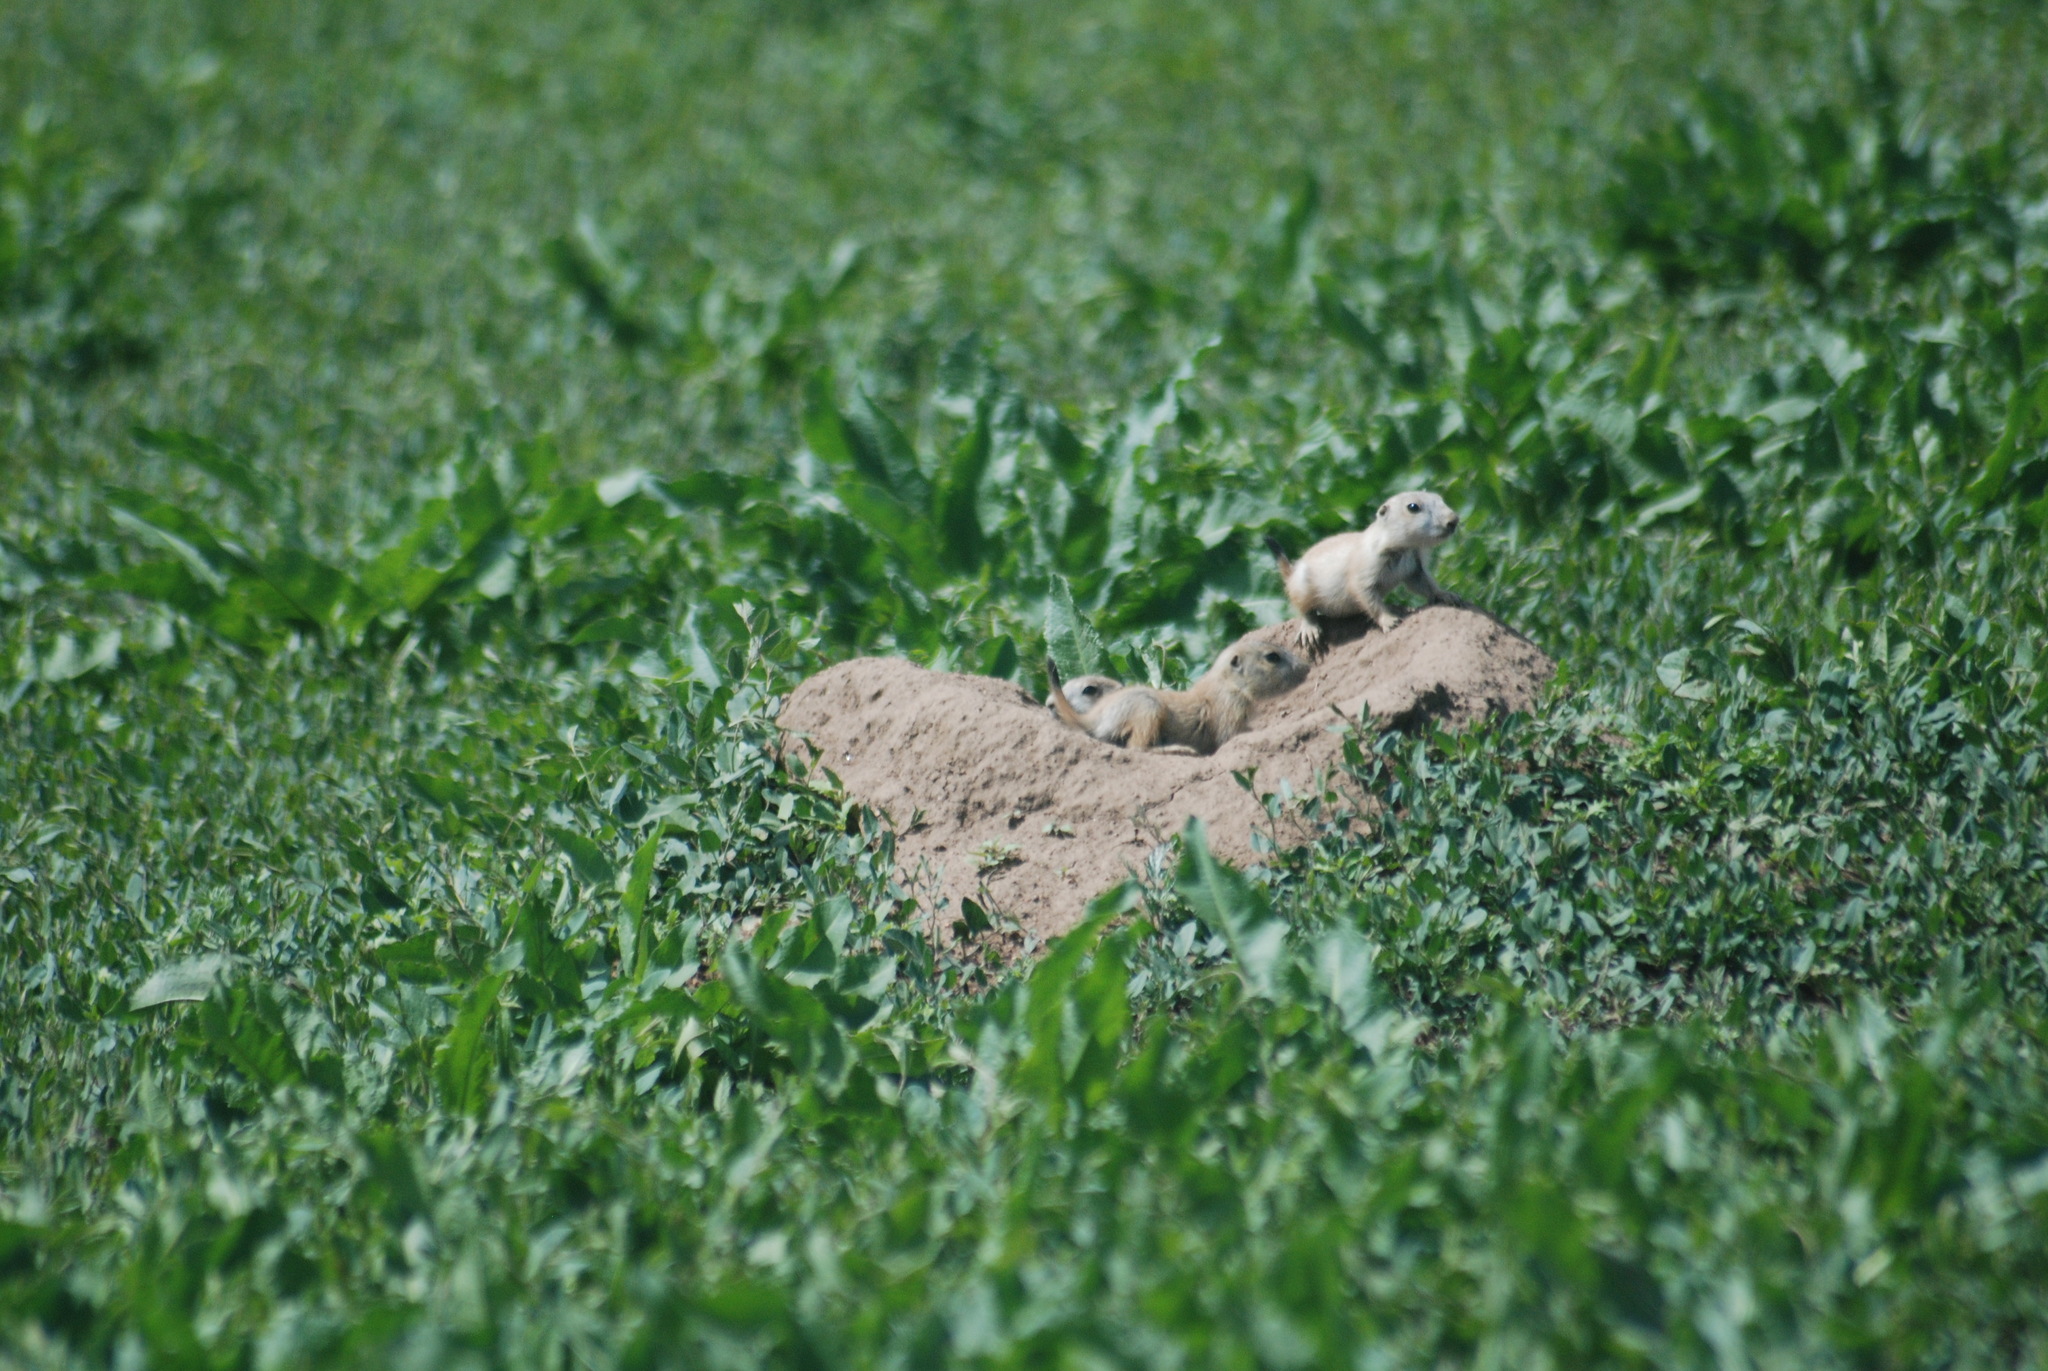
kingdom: Animalia
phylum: Chordata
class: Mammalia
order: Rodentia
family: Sciuridae
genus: Cynomys
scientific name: Cynomys ludovicianus
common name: Black-tailed prairie dog
